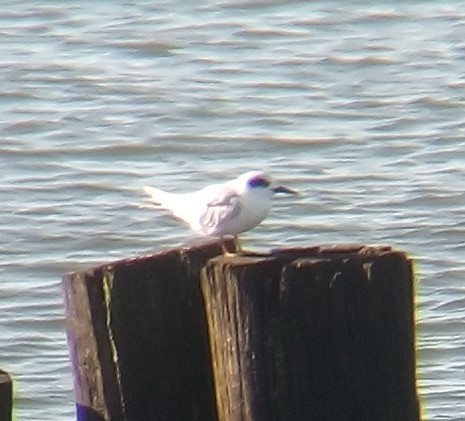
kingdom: Animalia
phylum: Chordata
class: Aves
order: Charadriiformes
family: Laridae
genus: Sterna
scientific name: Sterna forsteri
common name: Forster's tern
